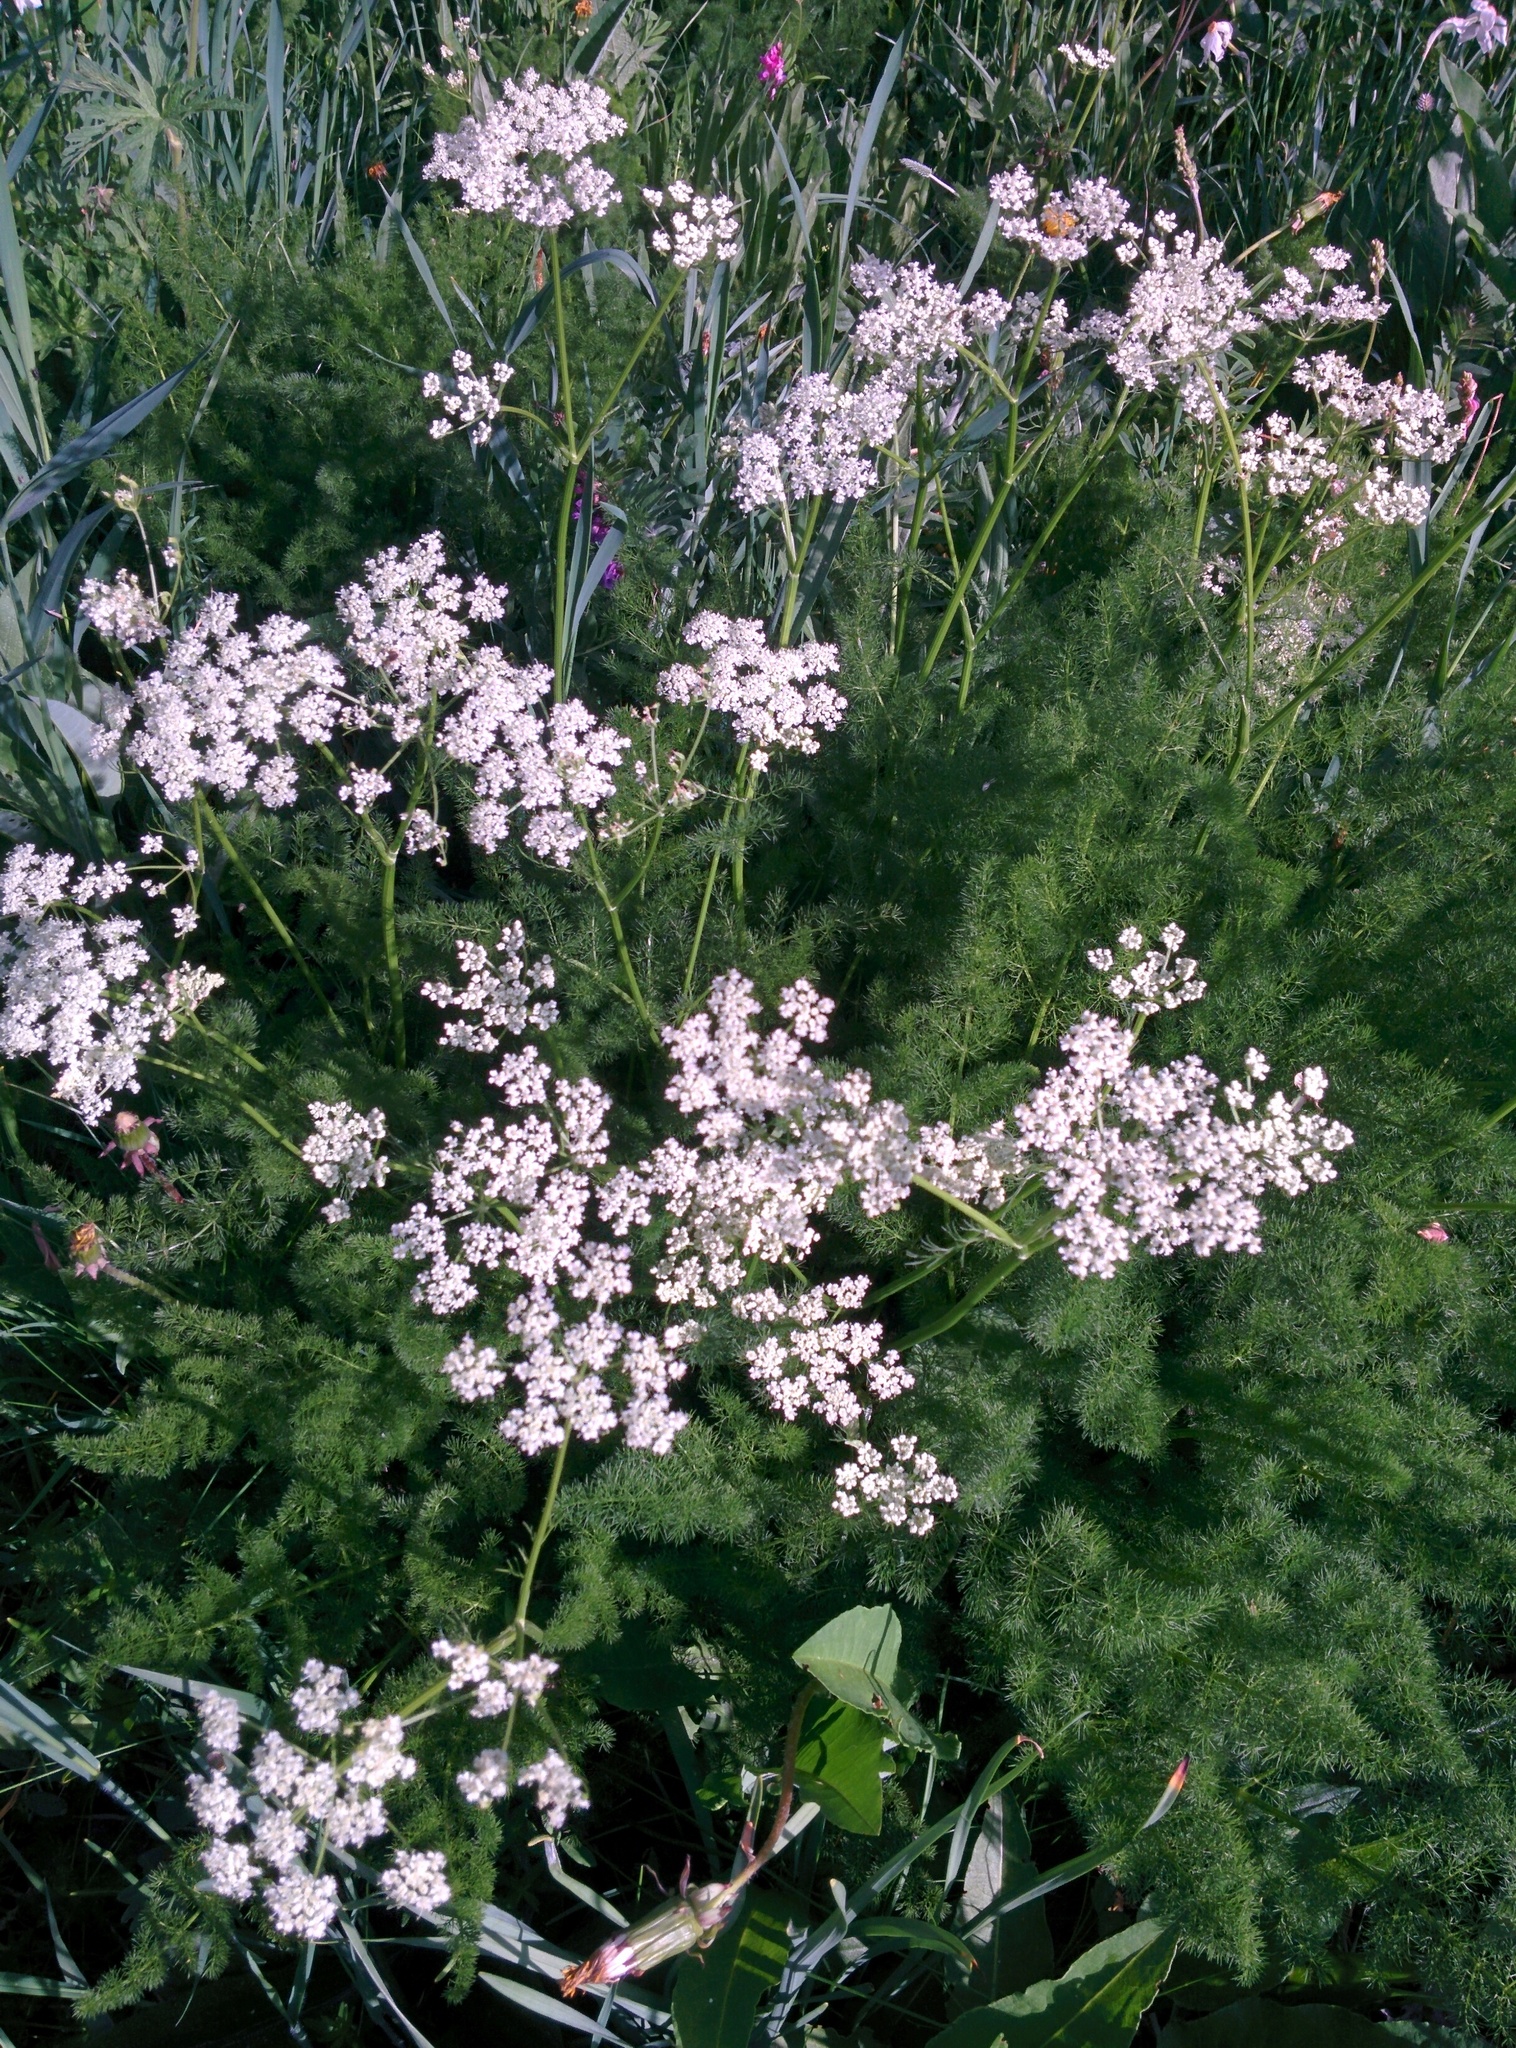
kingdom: Plantae
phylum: Tracheophyta
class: Magnoliopsida
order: Apiales
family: Apiaceae
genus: Meum
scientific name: Meum athamanticum
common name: Spignel
